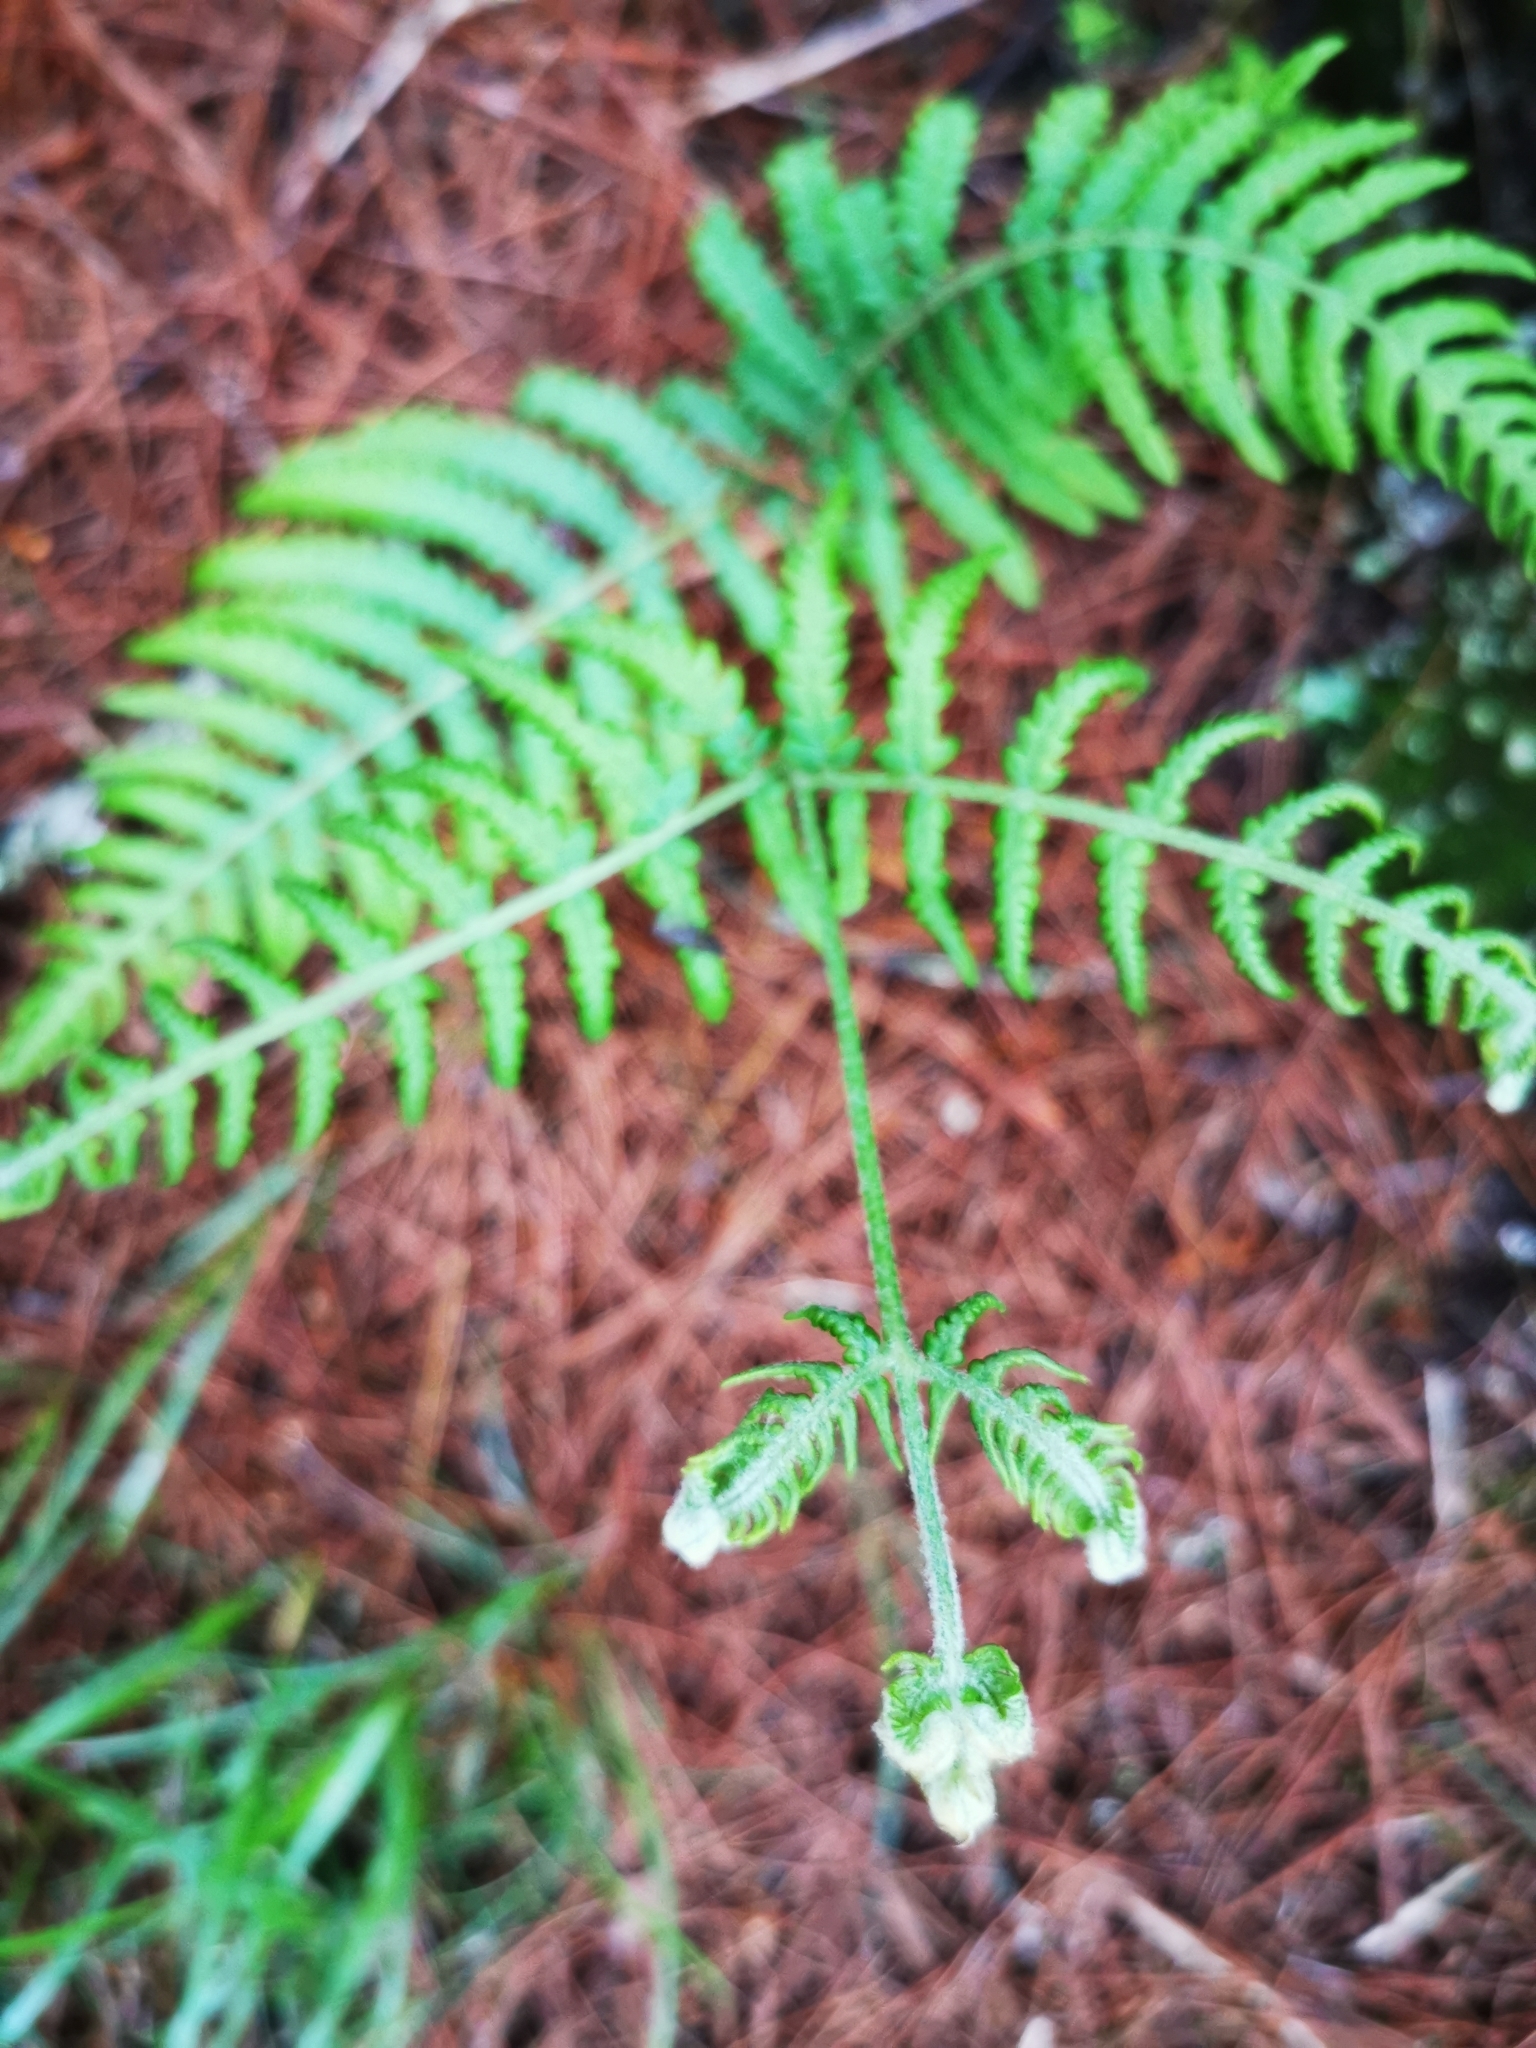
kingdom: Plantae
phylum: Tracheophyta
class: Polypodiopsida
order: Polypodiales
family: Dennstaedtiaceae
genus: Pteridium
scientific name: Pteridium aquilinum
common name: Bracken
